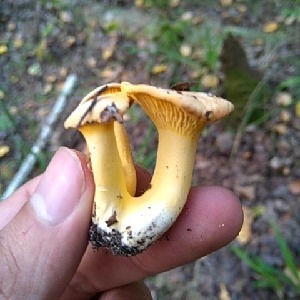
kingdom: Fungi
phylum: Basidiomycota
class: Agaricomycetes
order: Cantharellales
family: Hydnaceae
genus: Cantharellus
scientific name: Cantharellus cibarius
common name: Chanterelle
